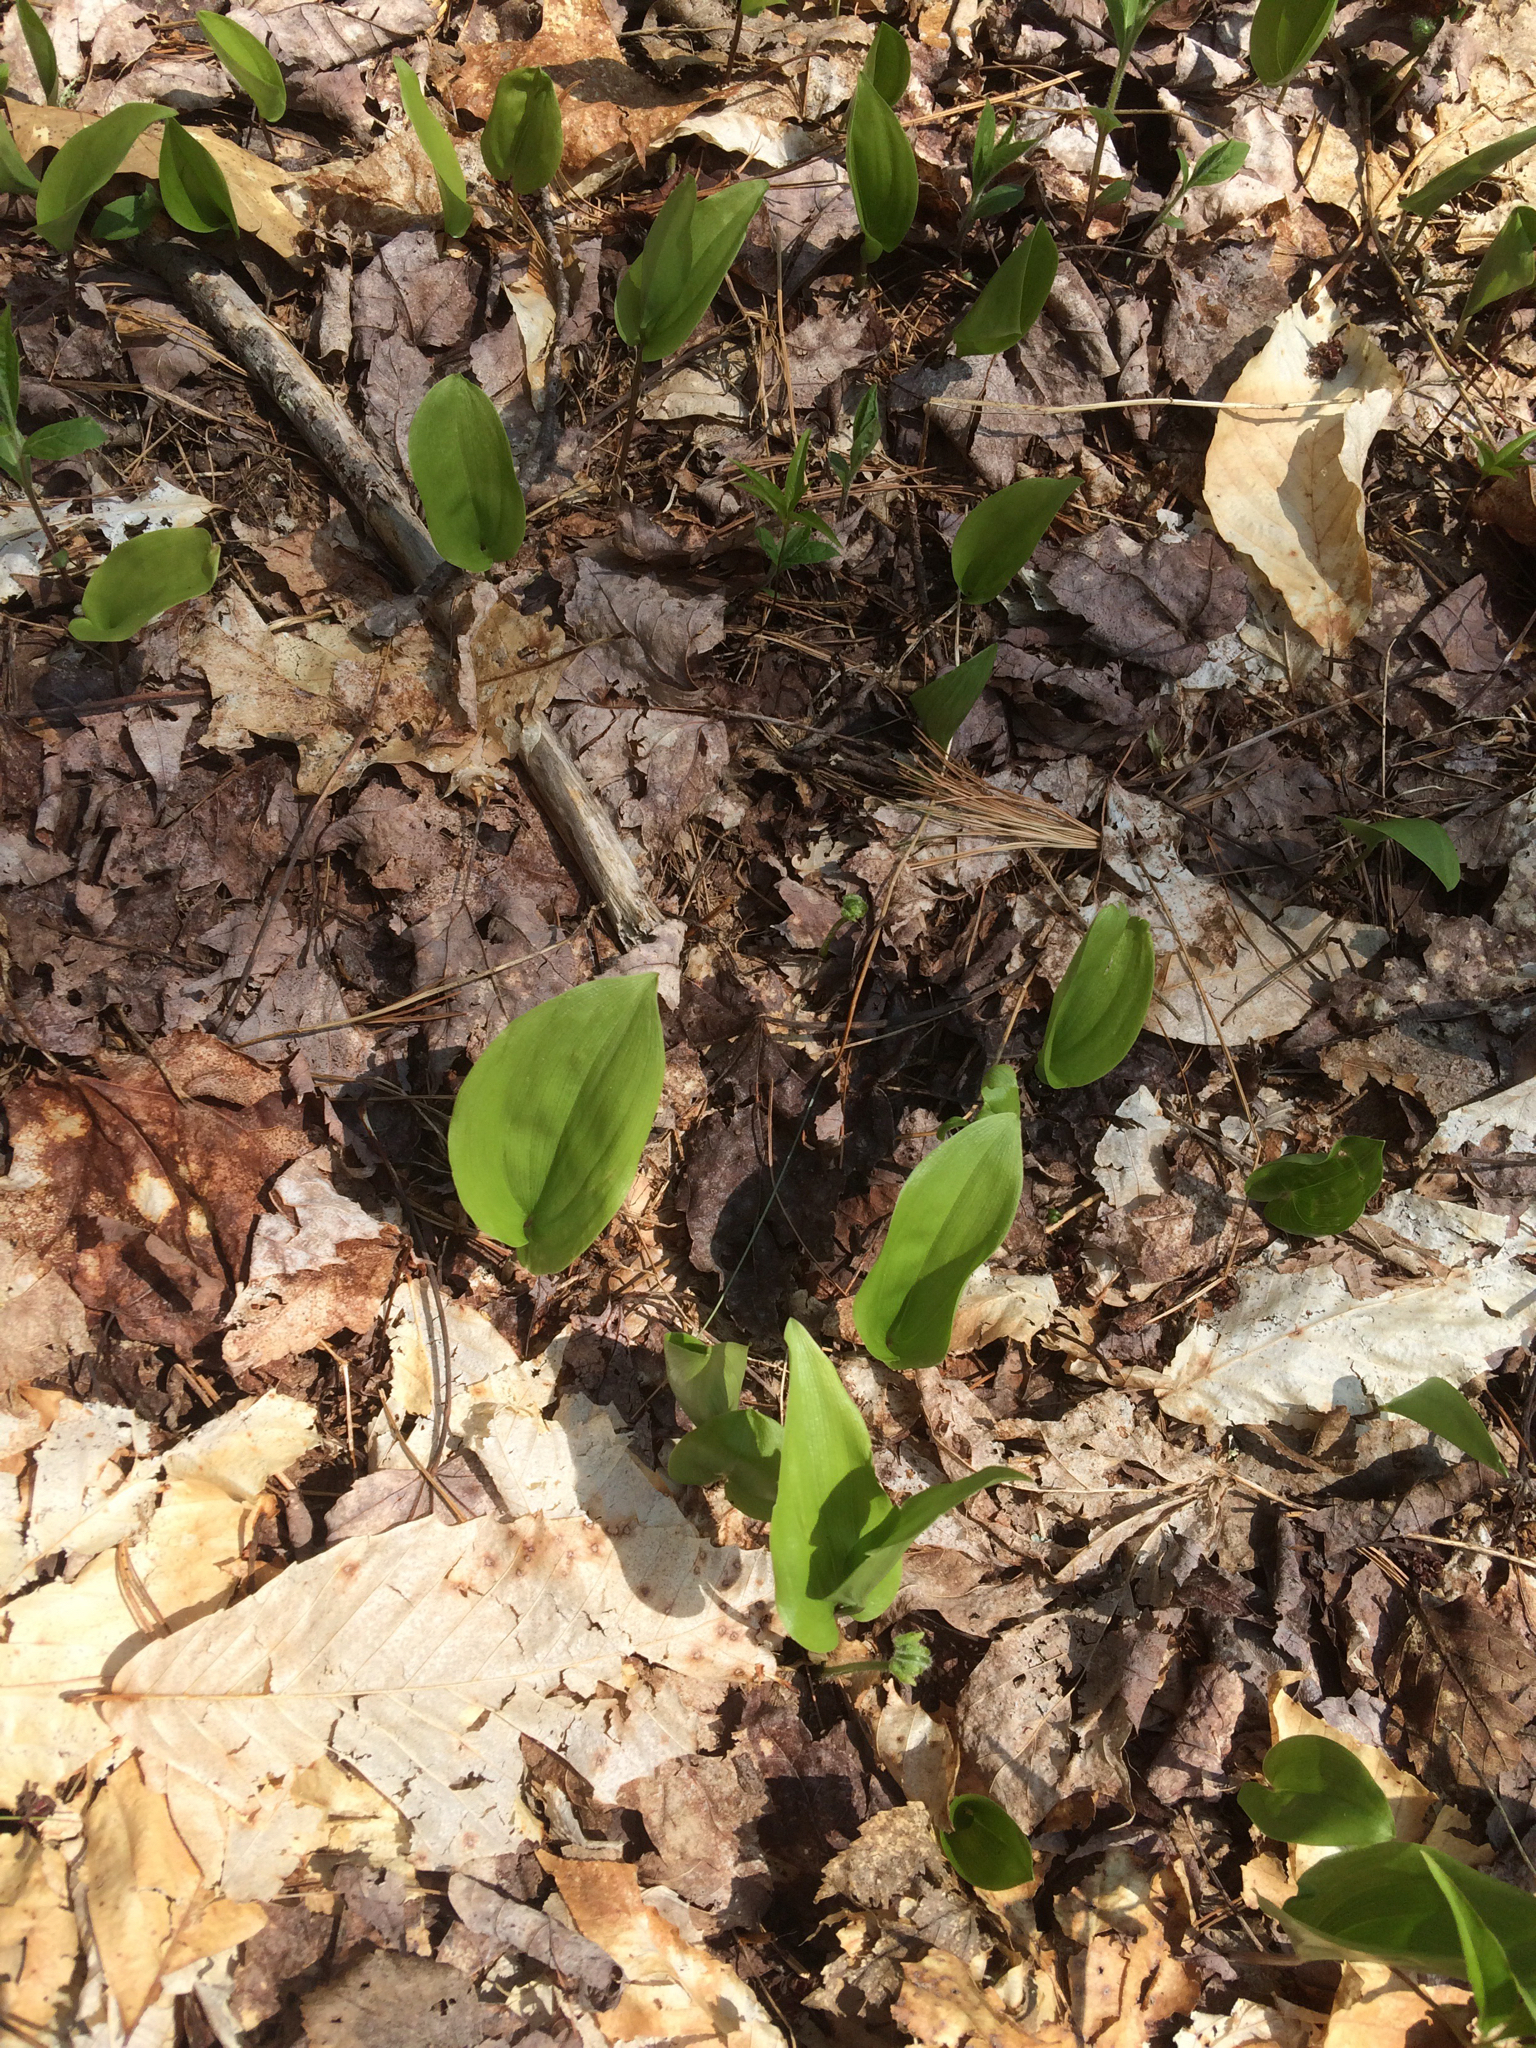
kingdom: Plantae
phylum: Tracheophyta
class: Liliopsida
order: Asparagales
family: Asparagaceae
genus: Maianthemum
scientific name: Maianthemum canadense
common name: False lily-of-the-valley
